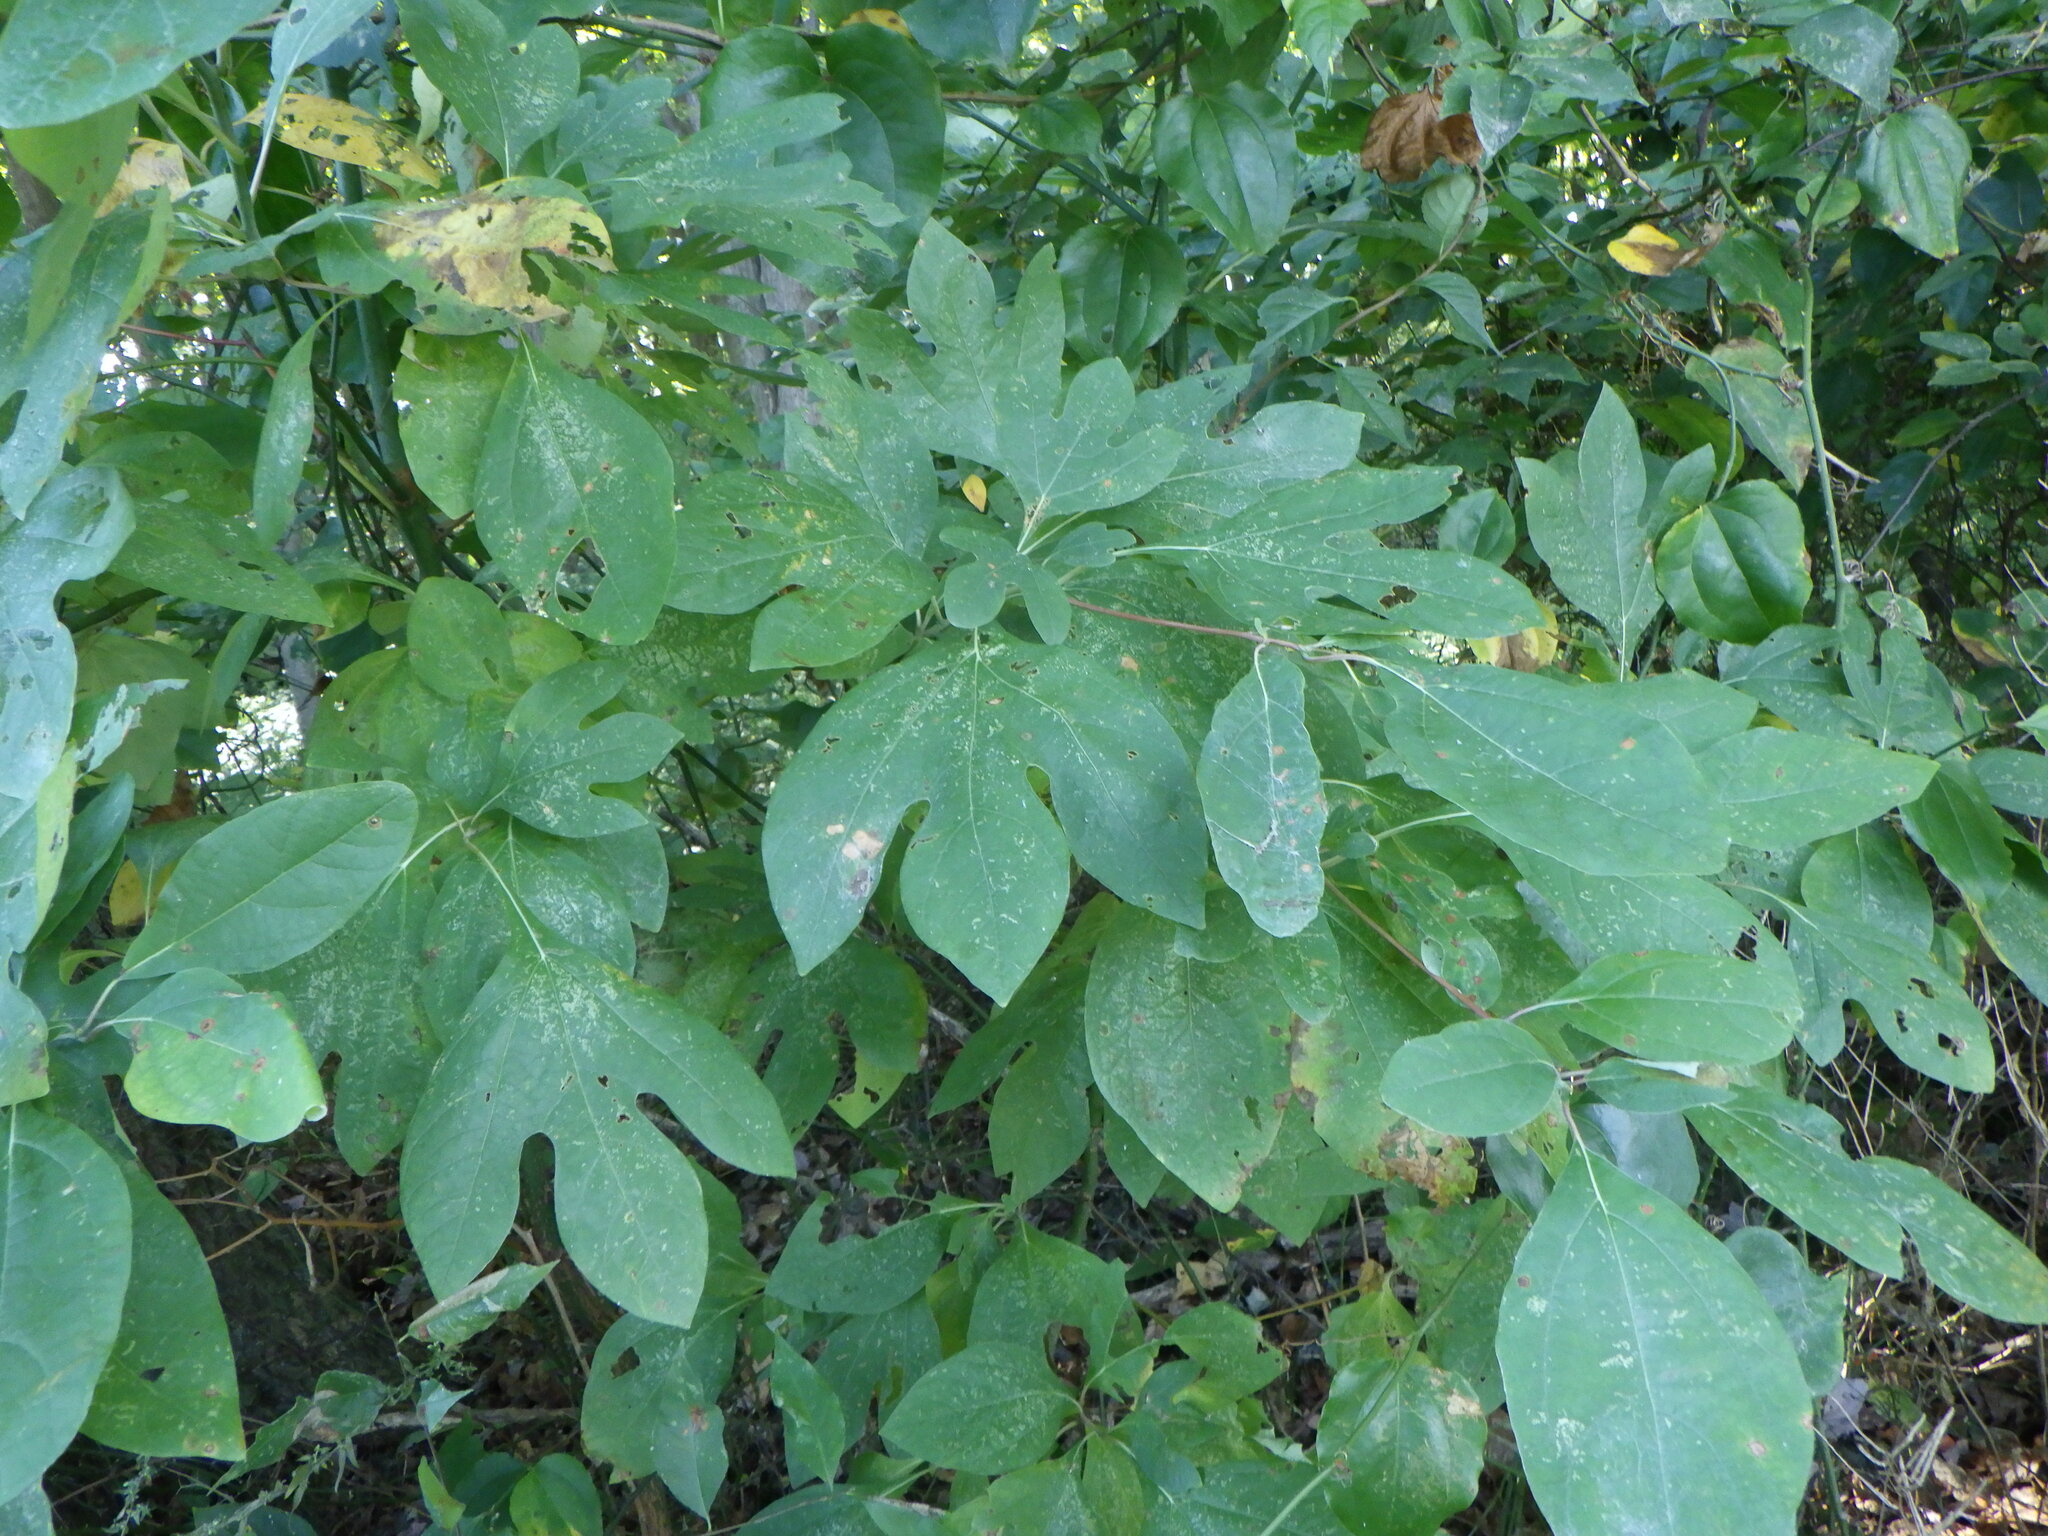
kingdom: Plantae
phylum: Tracheophyta
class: Magnoliopsida
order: Laurales
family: Lauraceae
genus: Sassafras
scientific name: Sassafras albidum
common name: Sassafras
